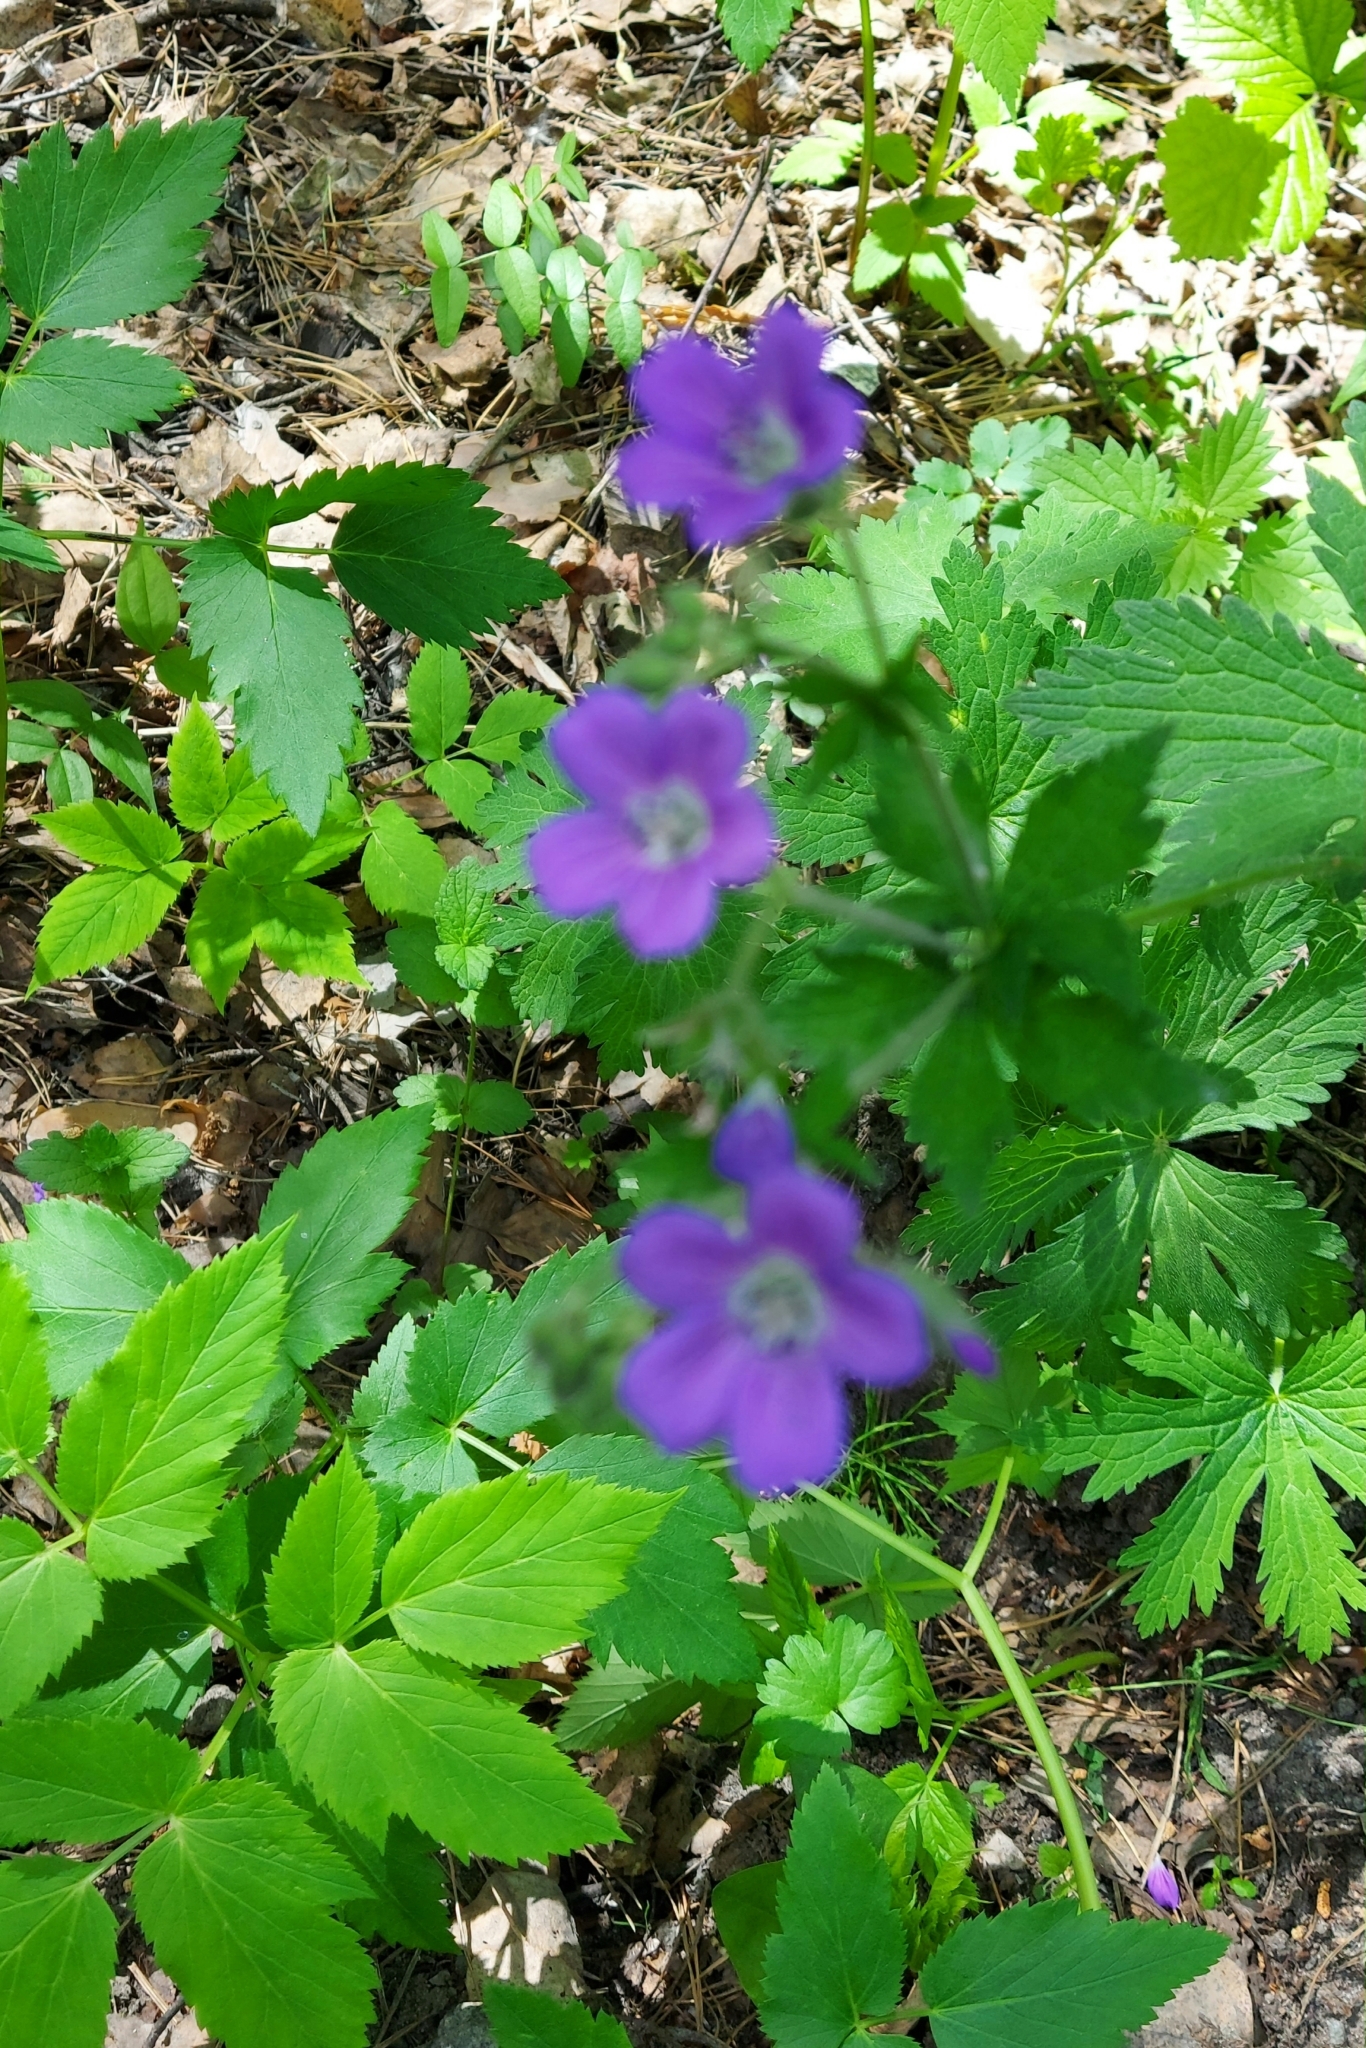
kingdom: Plantae
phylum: Tracheophyta
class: Magnoliopsida
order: Geraniales
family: Geraniaceae
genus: Geranium
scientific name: Geranium sylvaticum
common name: Wood crane's-bill
